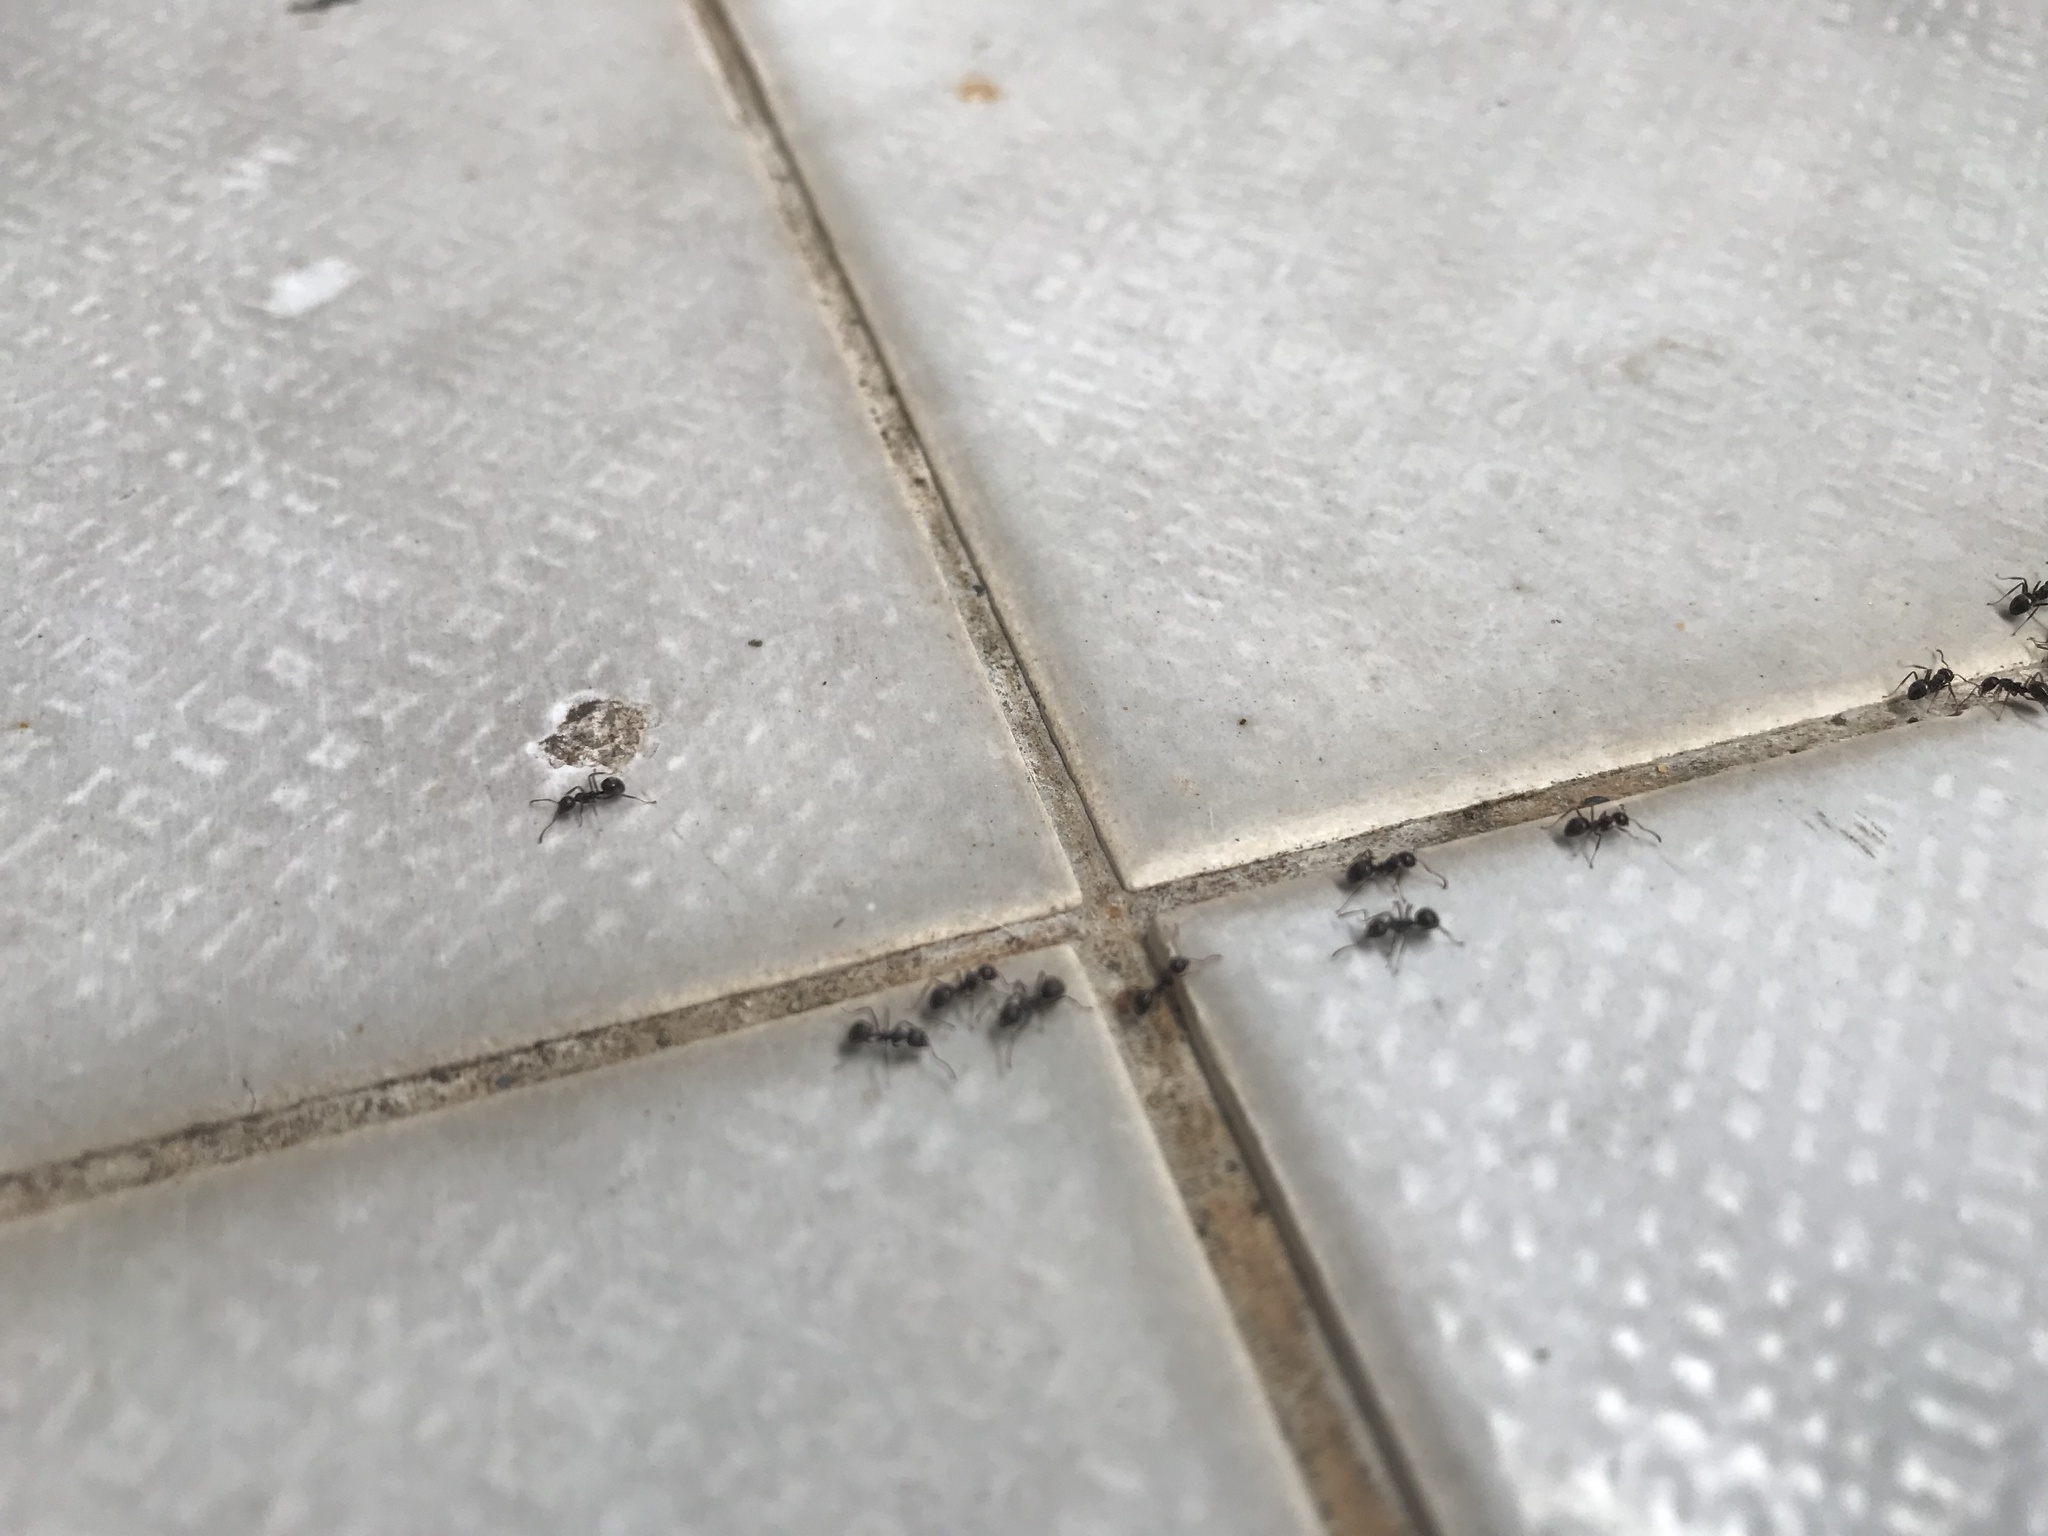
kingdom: Animalia
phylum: Arthropoda
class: Insecta
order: Hymenoptera
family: Formicidae
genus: Dolichoderus
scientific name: Dolichoderus thoracicus
